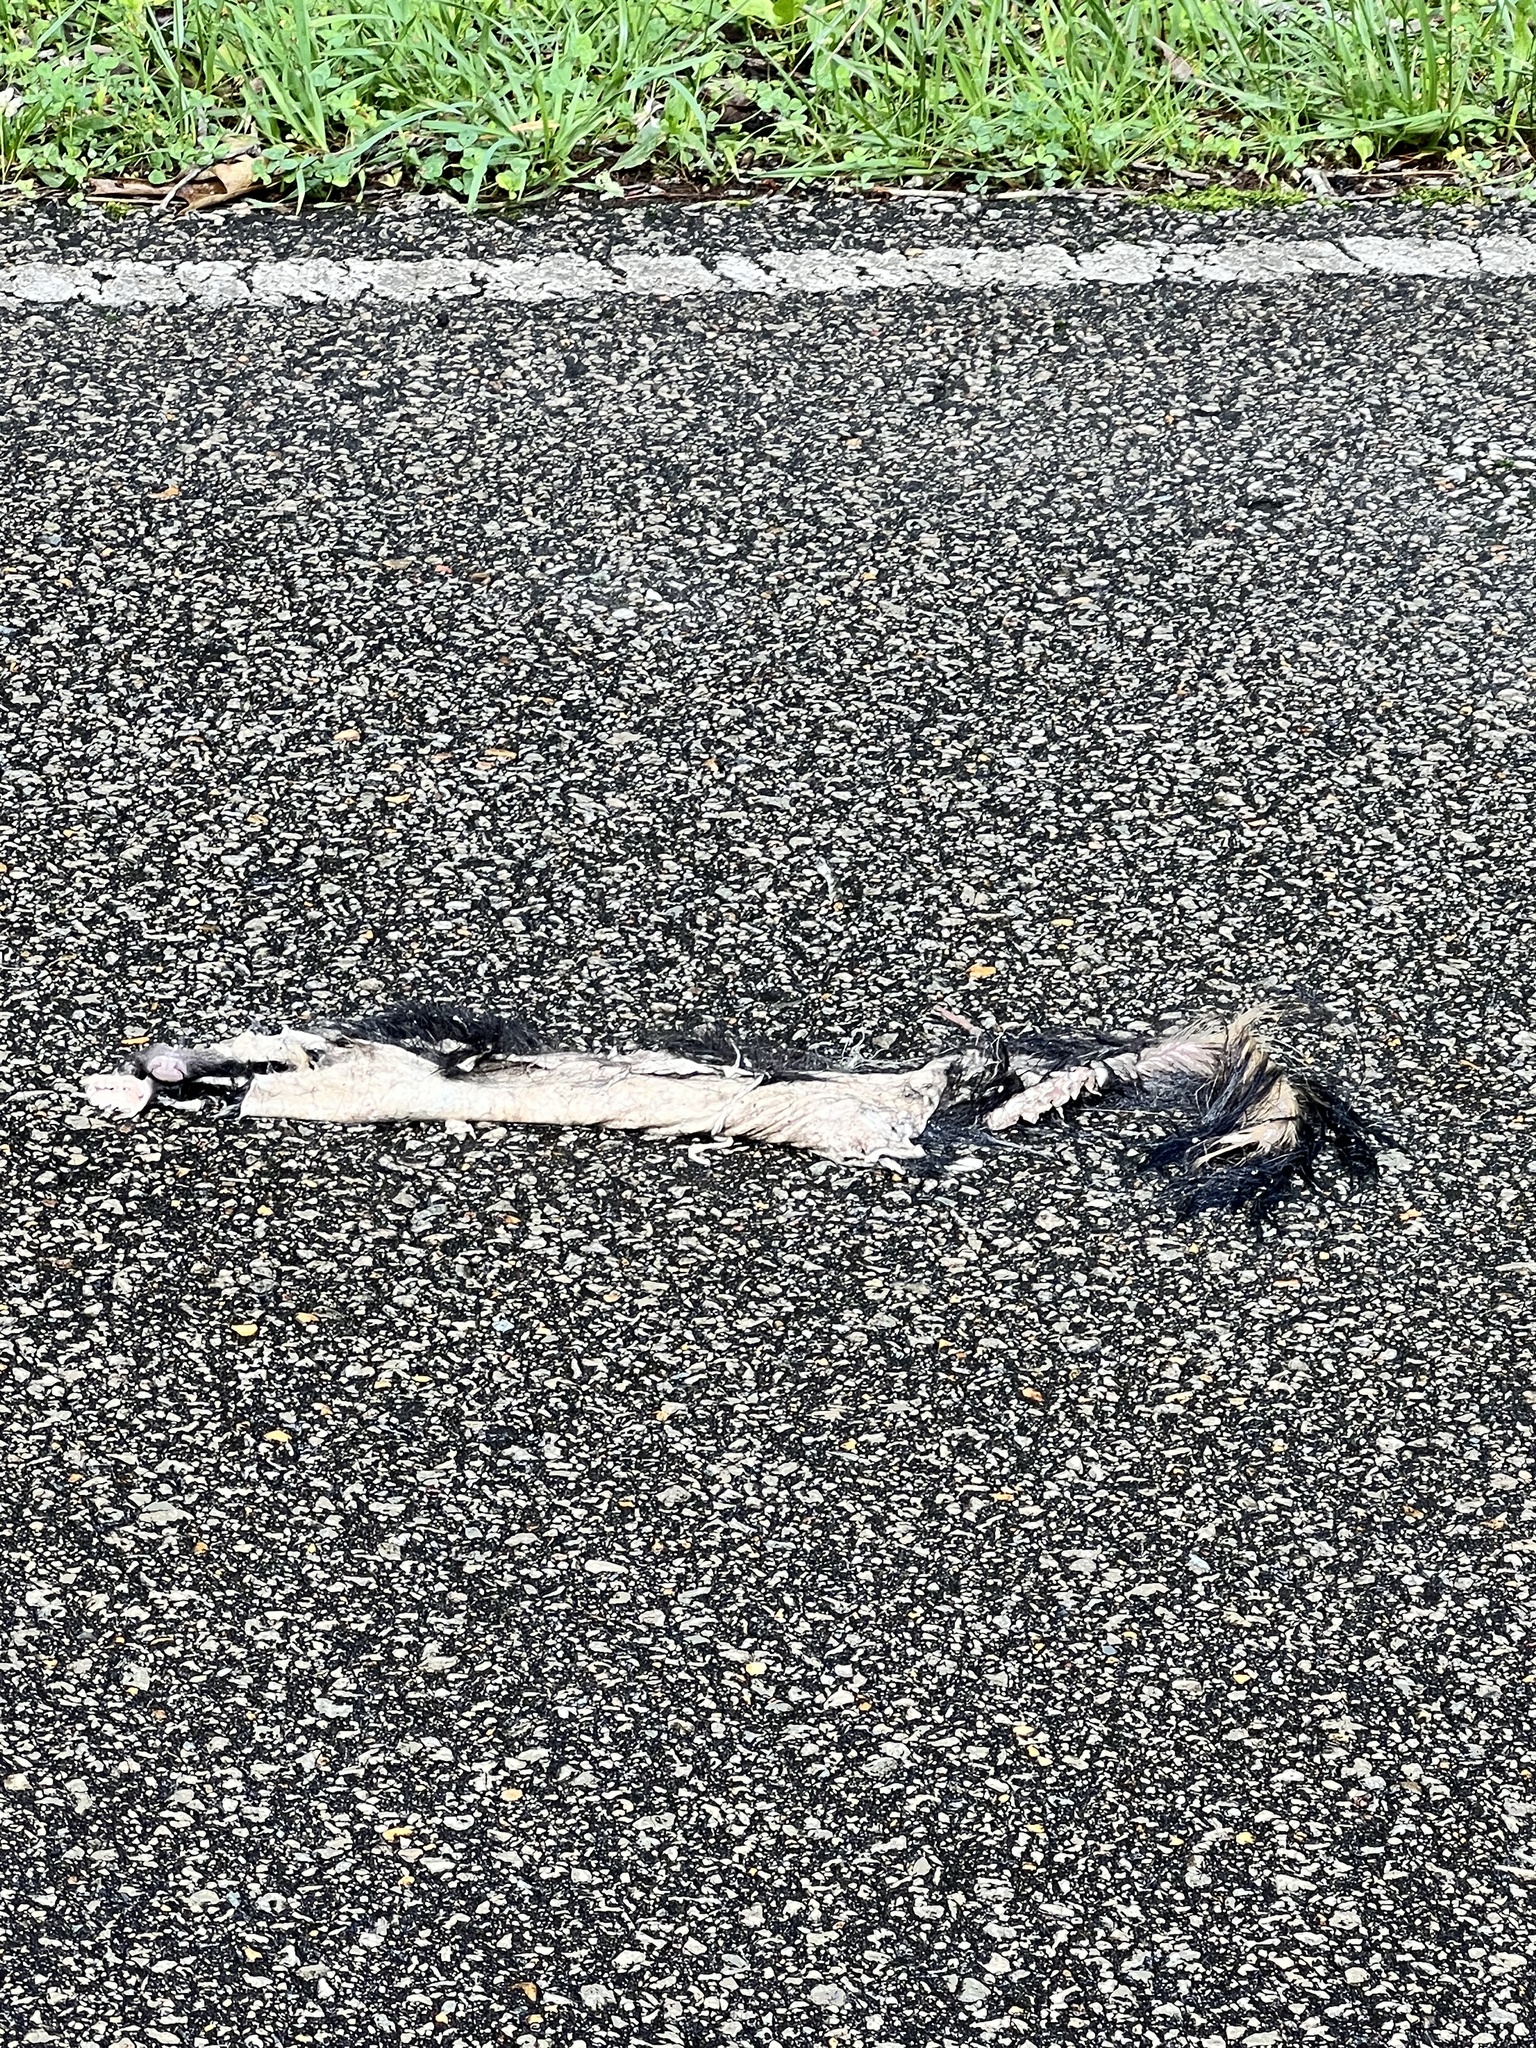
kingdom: Animalia
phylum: Chordata
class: Mammalia
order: Carnivora
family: Mephitidae
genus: Mephitis
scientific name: Mephitis mephitis
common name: Striped skunk
